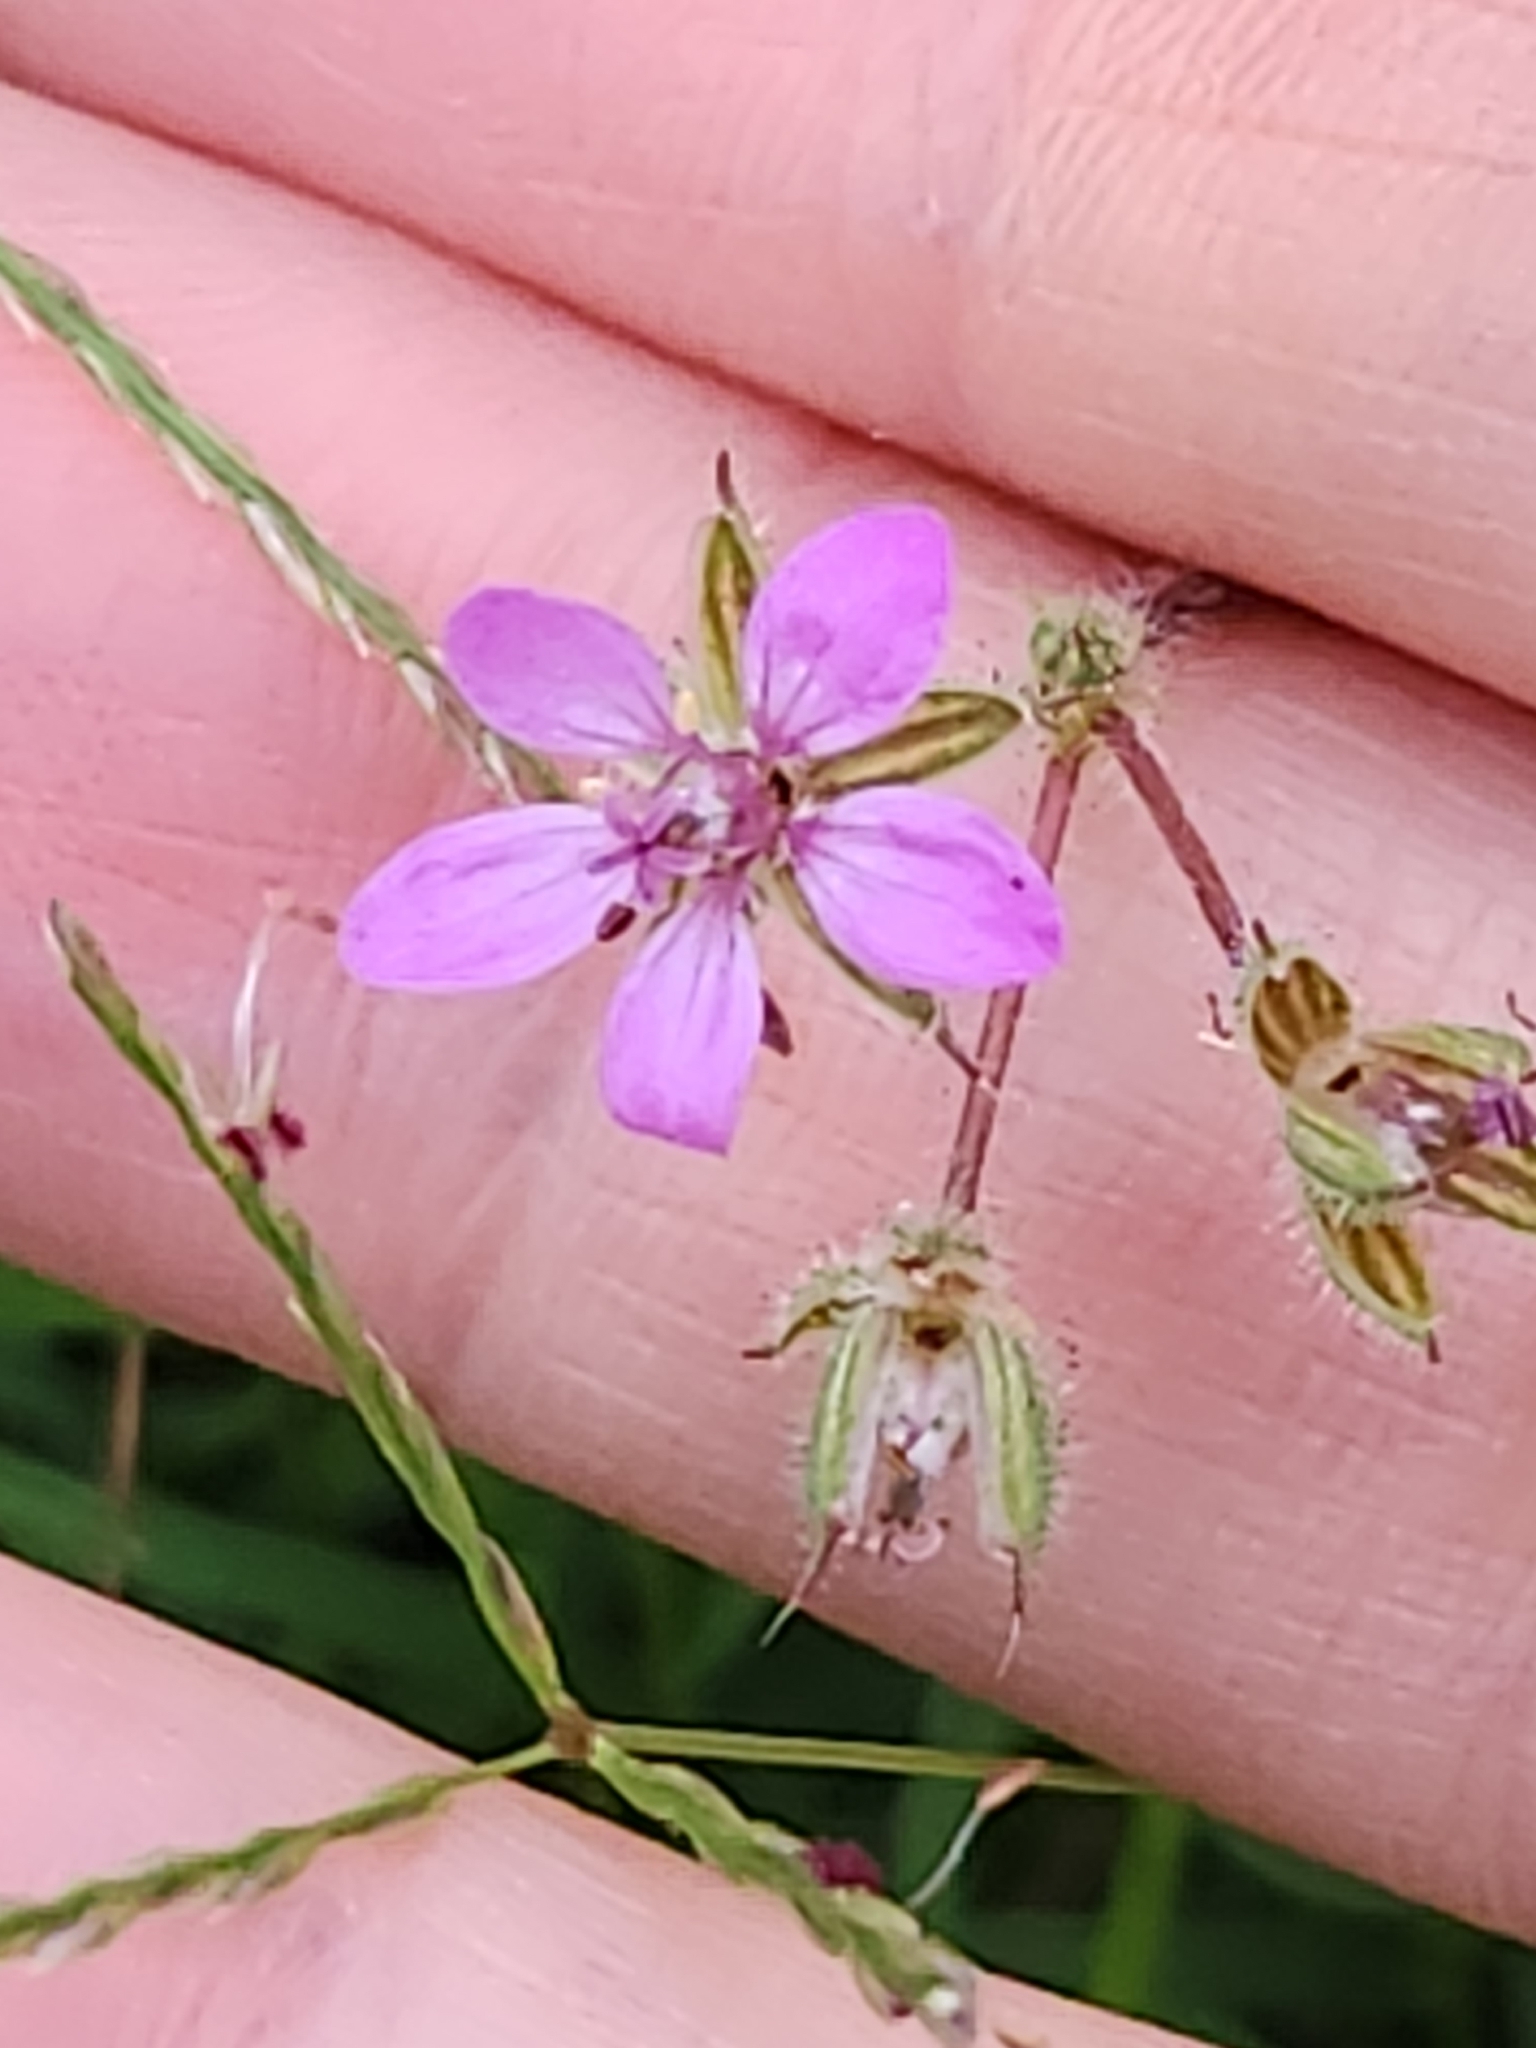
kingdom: Plantae
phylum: Tracheophyta
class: Magnoliopsida
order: Geraniales
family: Geraniaceae
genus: Erodium
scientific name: Erodium cicutarium
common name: Common stork's-bill
